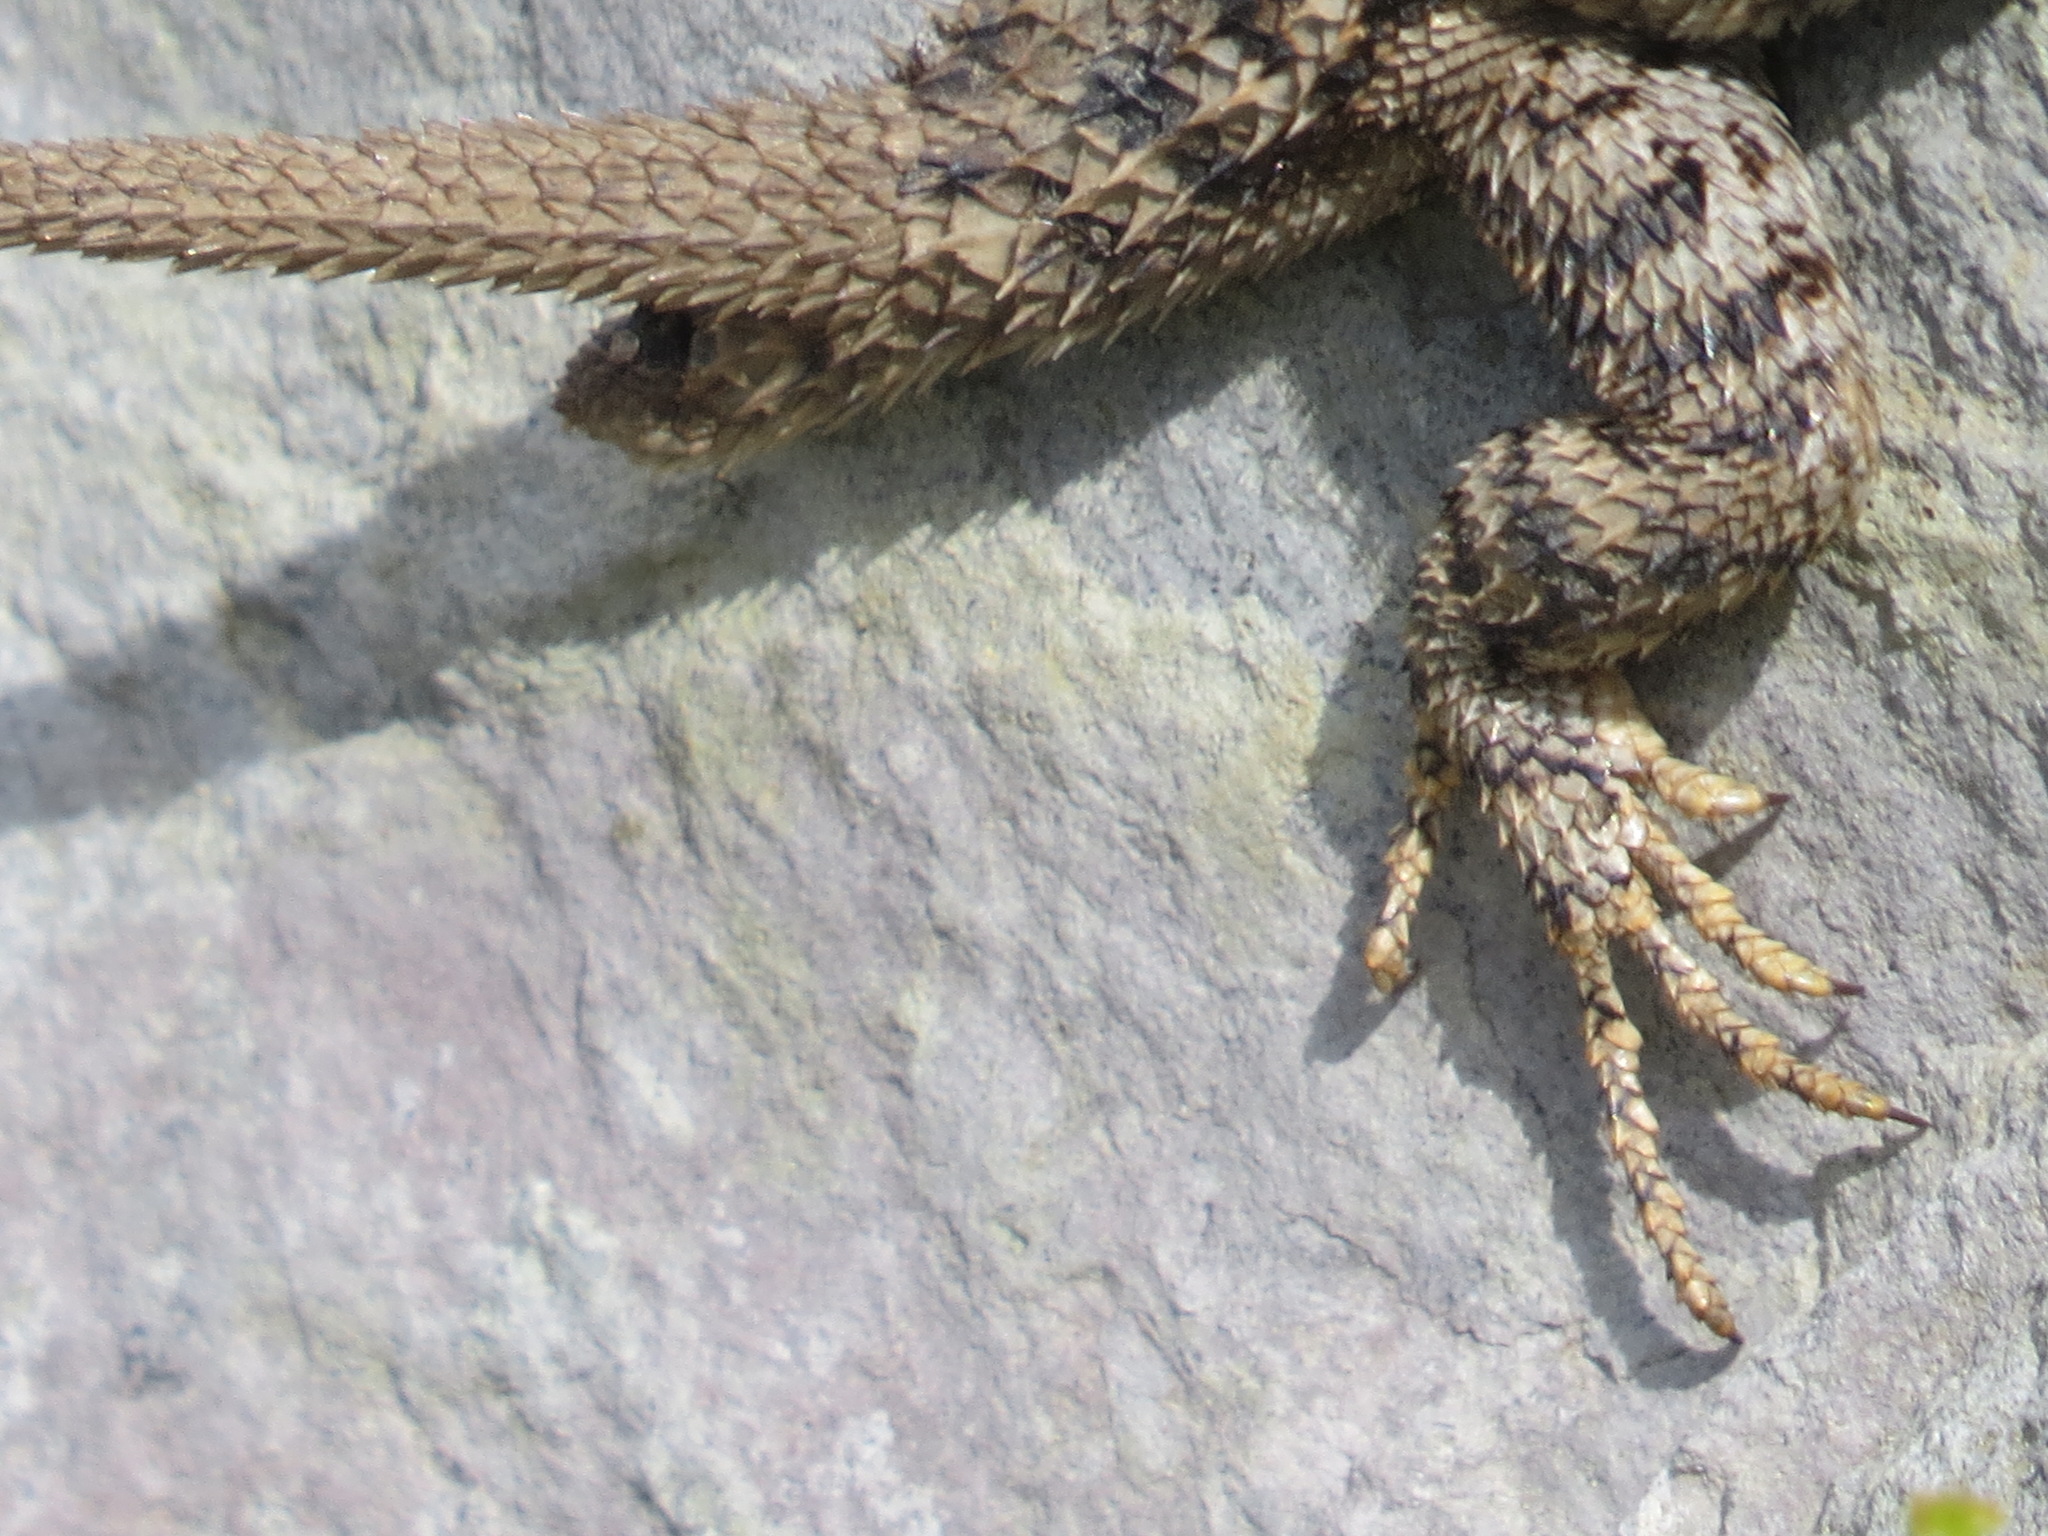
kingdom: Animalia
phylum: Chordata
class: Squamata
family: Phrynosomatidae
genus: Sceloporus
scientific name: Sceloporus occidentalis
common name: Western fence lizard
